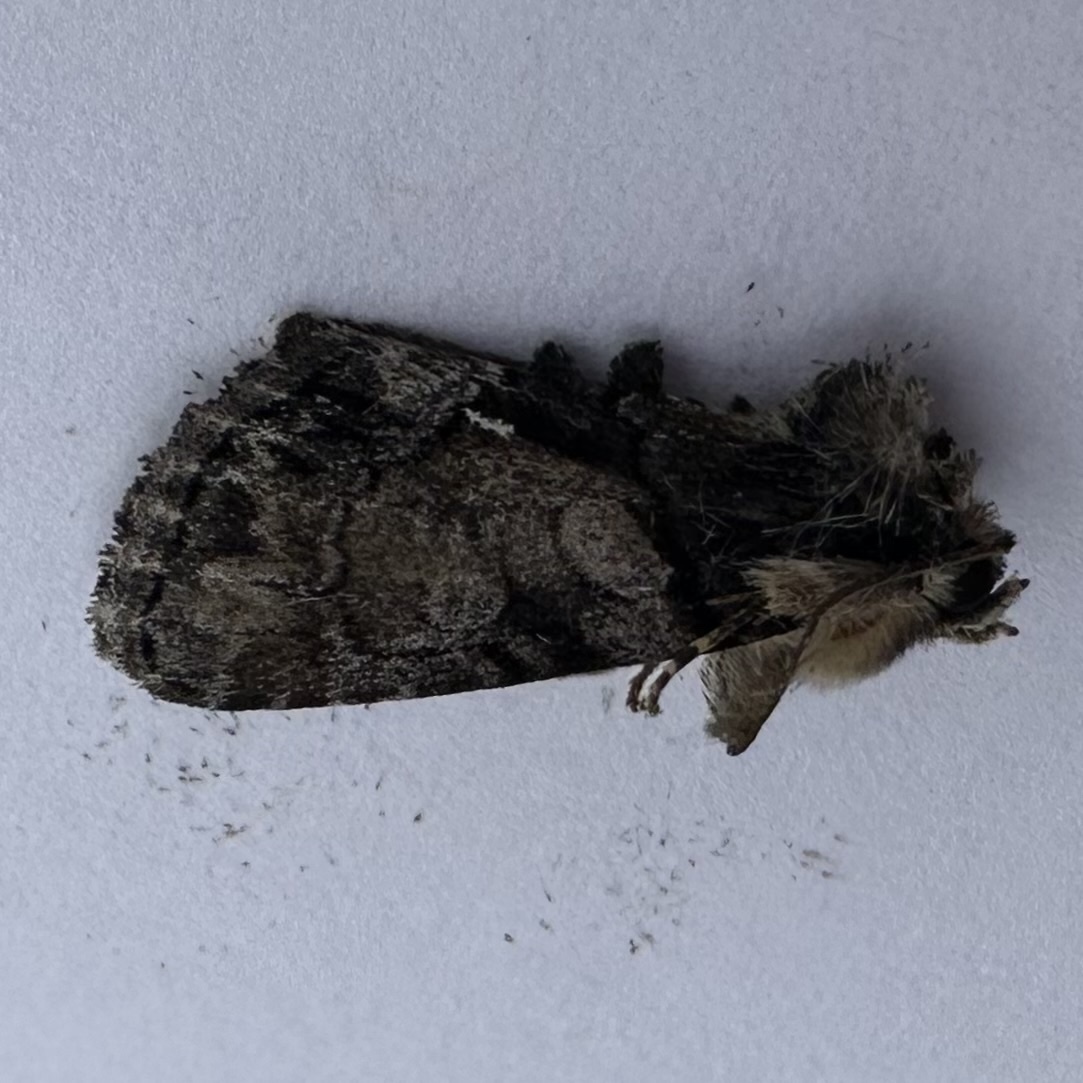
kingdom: Animalia
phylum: Arthropoda
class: Insecta
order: Lepidoptera
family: Noctuidae
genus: Chytonix
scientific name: Chytonix palliatricula
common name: Cloaked marvel
